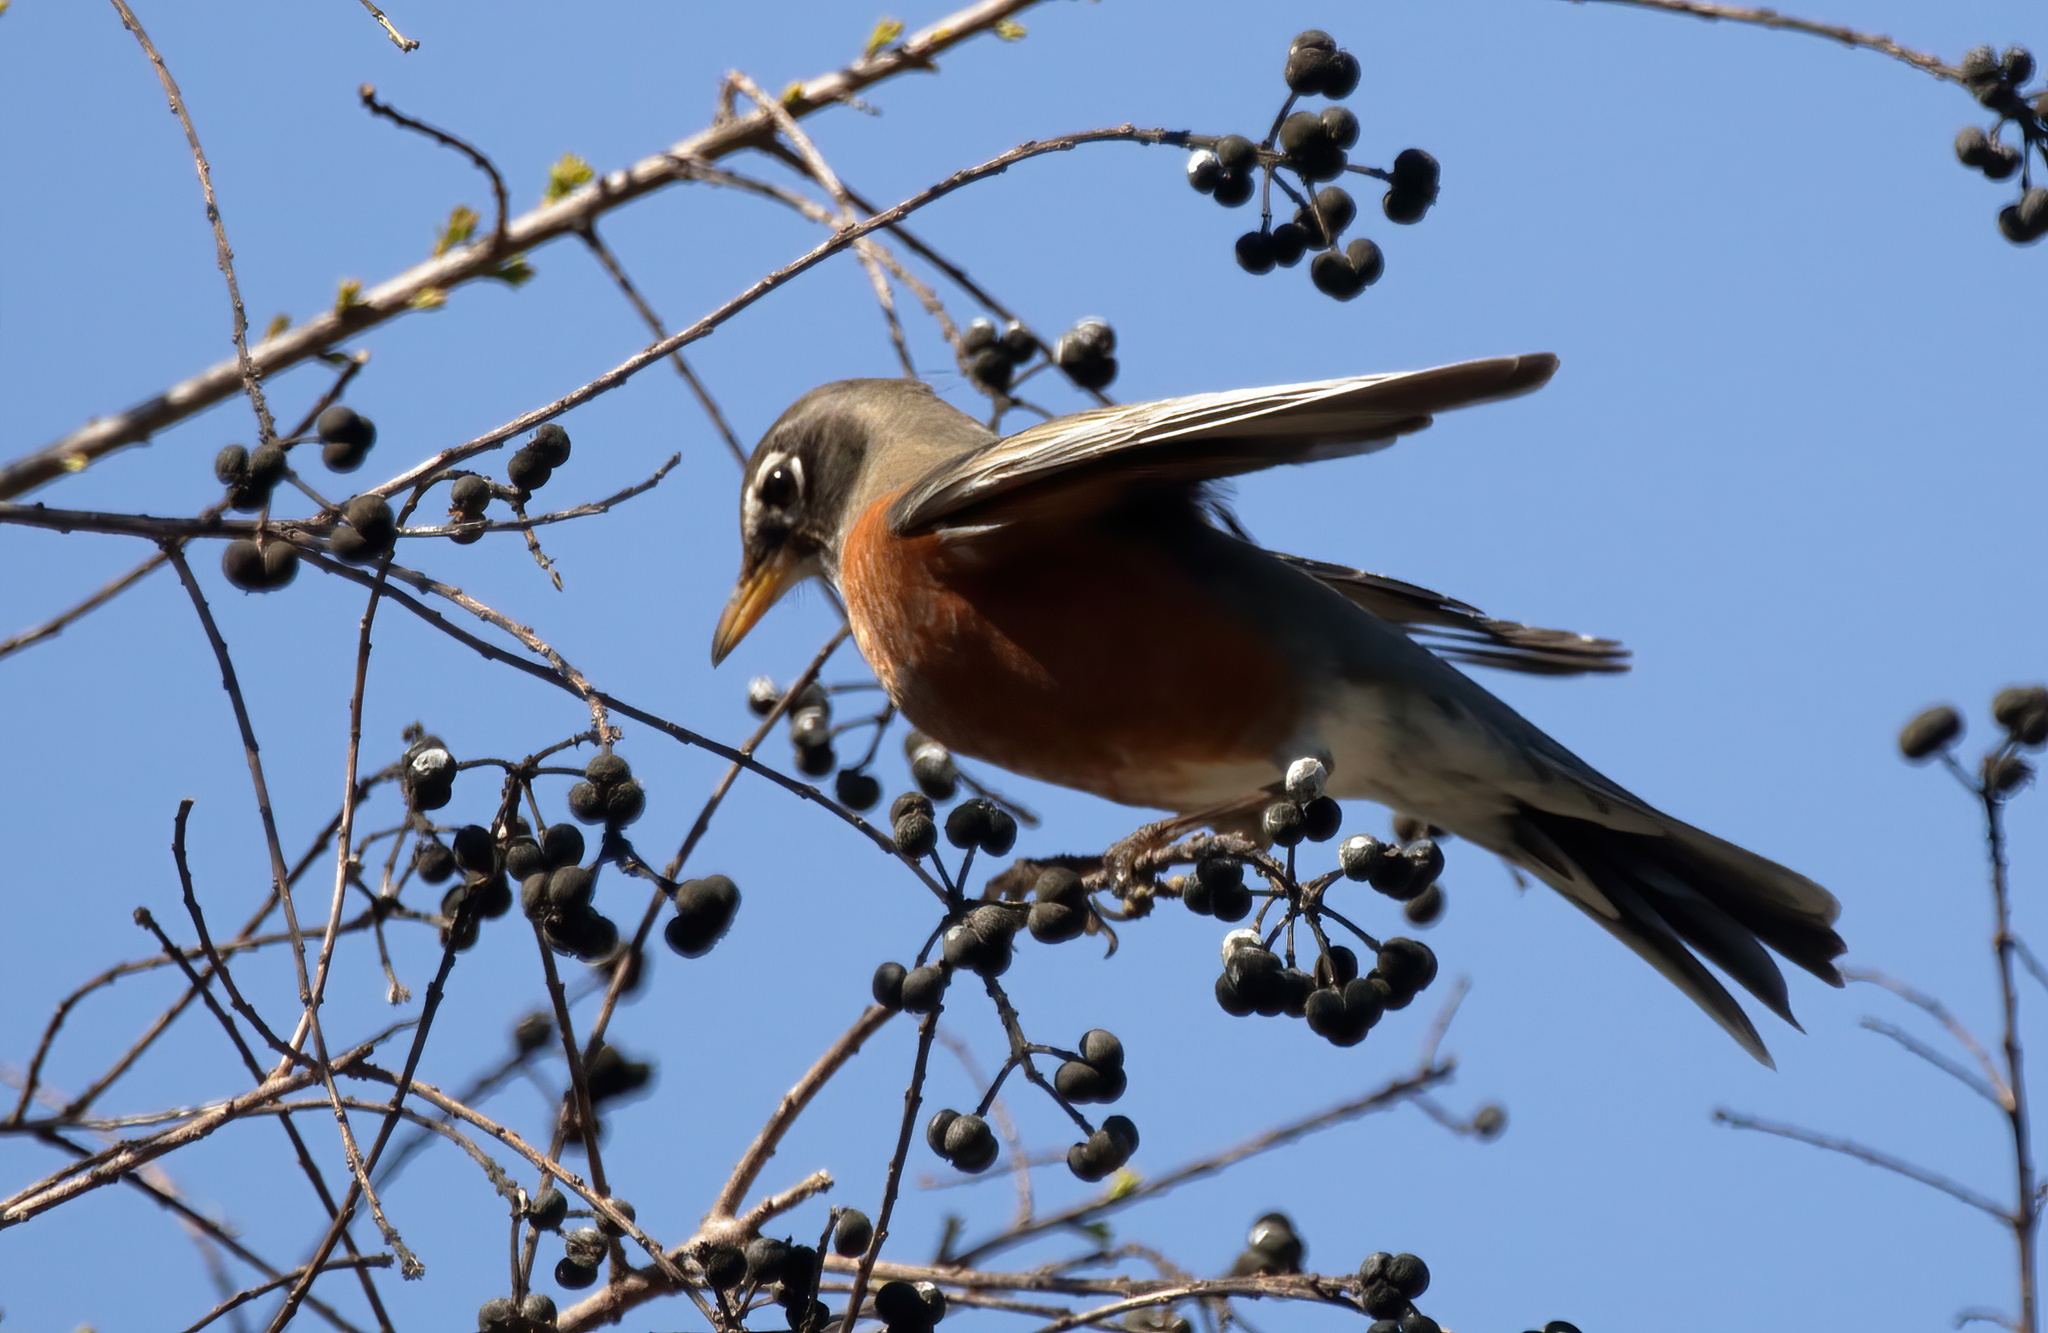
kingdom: Animalia
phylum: Chordata
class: Aves
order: Passeriformes
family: Turdidae
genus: Turdus
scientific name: Turdus migratorius
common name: American robin
